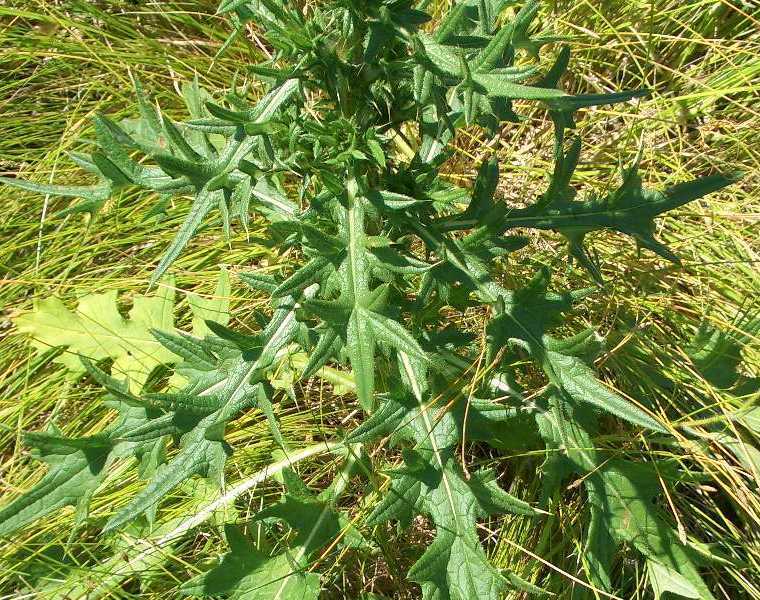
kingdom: Plantae
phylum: Tracheophyta
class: Magnoliopsida
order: Asterales
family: Asteraceae
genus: Cirsium
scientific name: Cirsium vulgare
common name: Bull thistle
